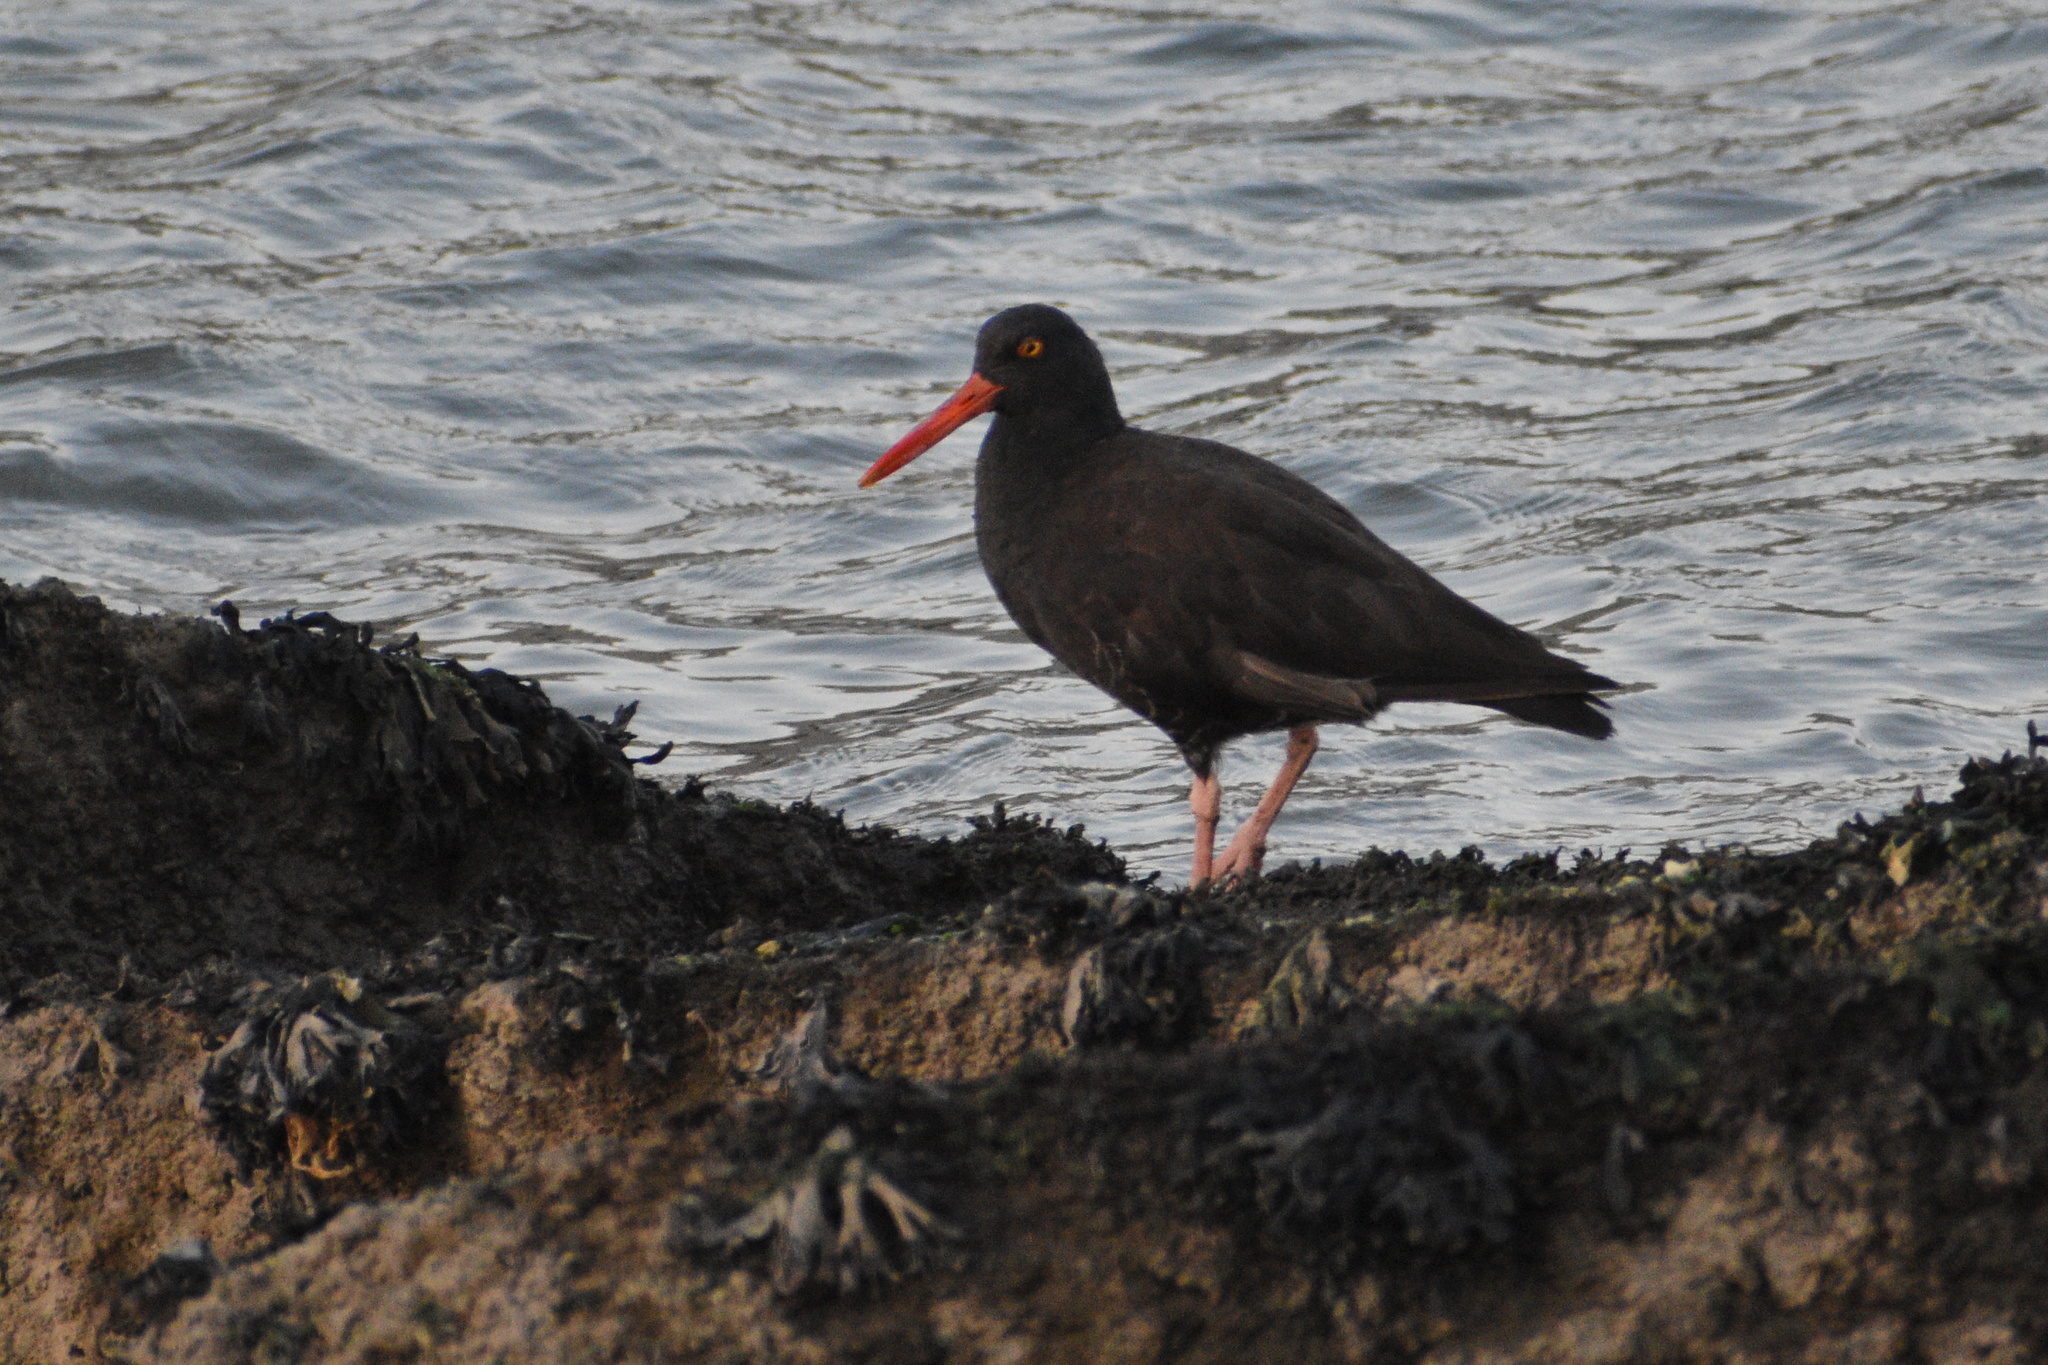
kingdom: Animalia
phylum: Chordata
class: Aves
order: Charadriiformes
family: Haematopodidae
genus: Haematopus
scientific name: Haematopus bachmani
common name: Black oystercatcher
